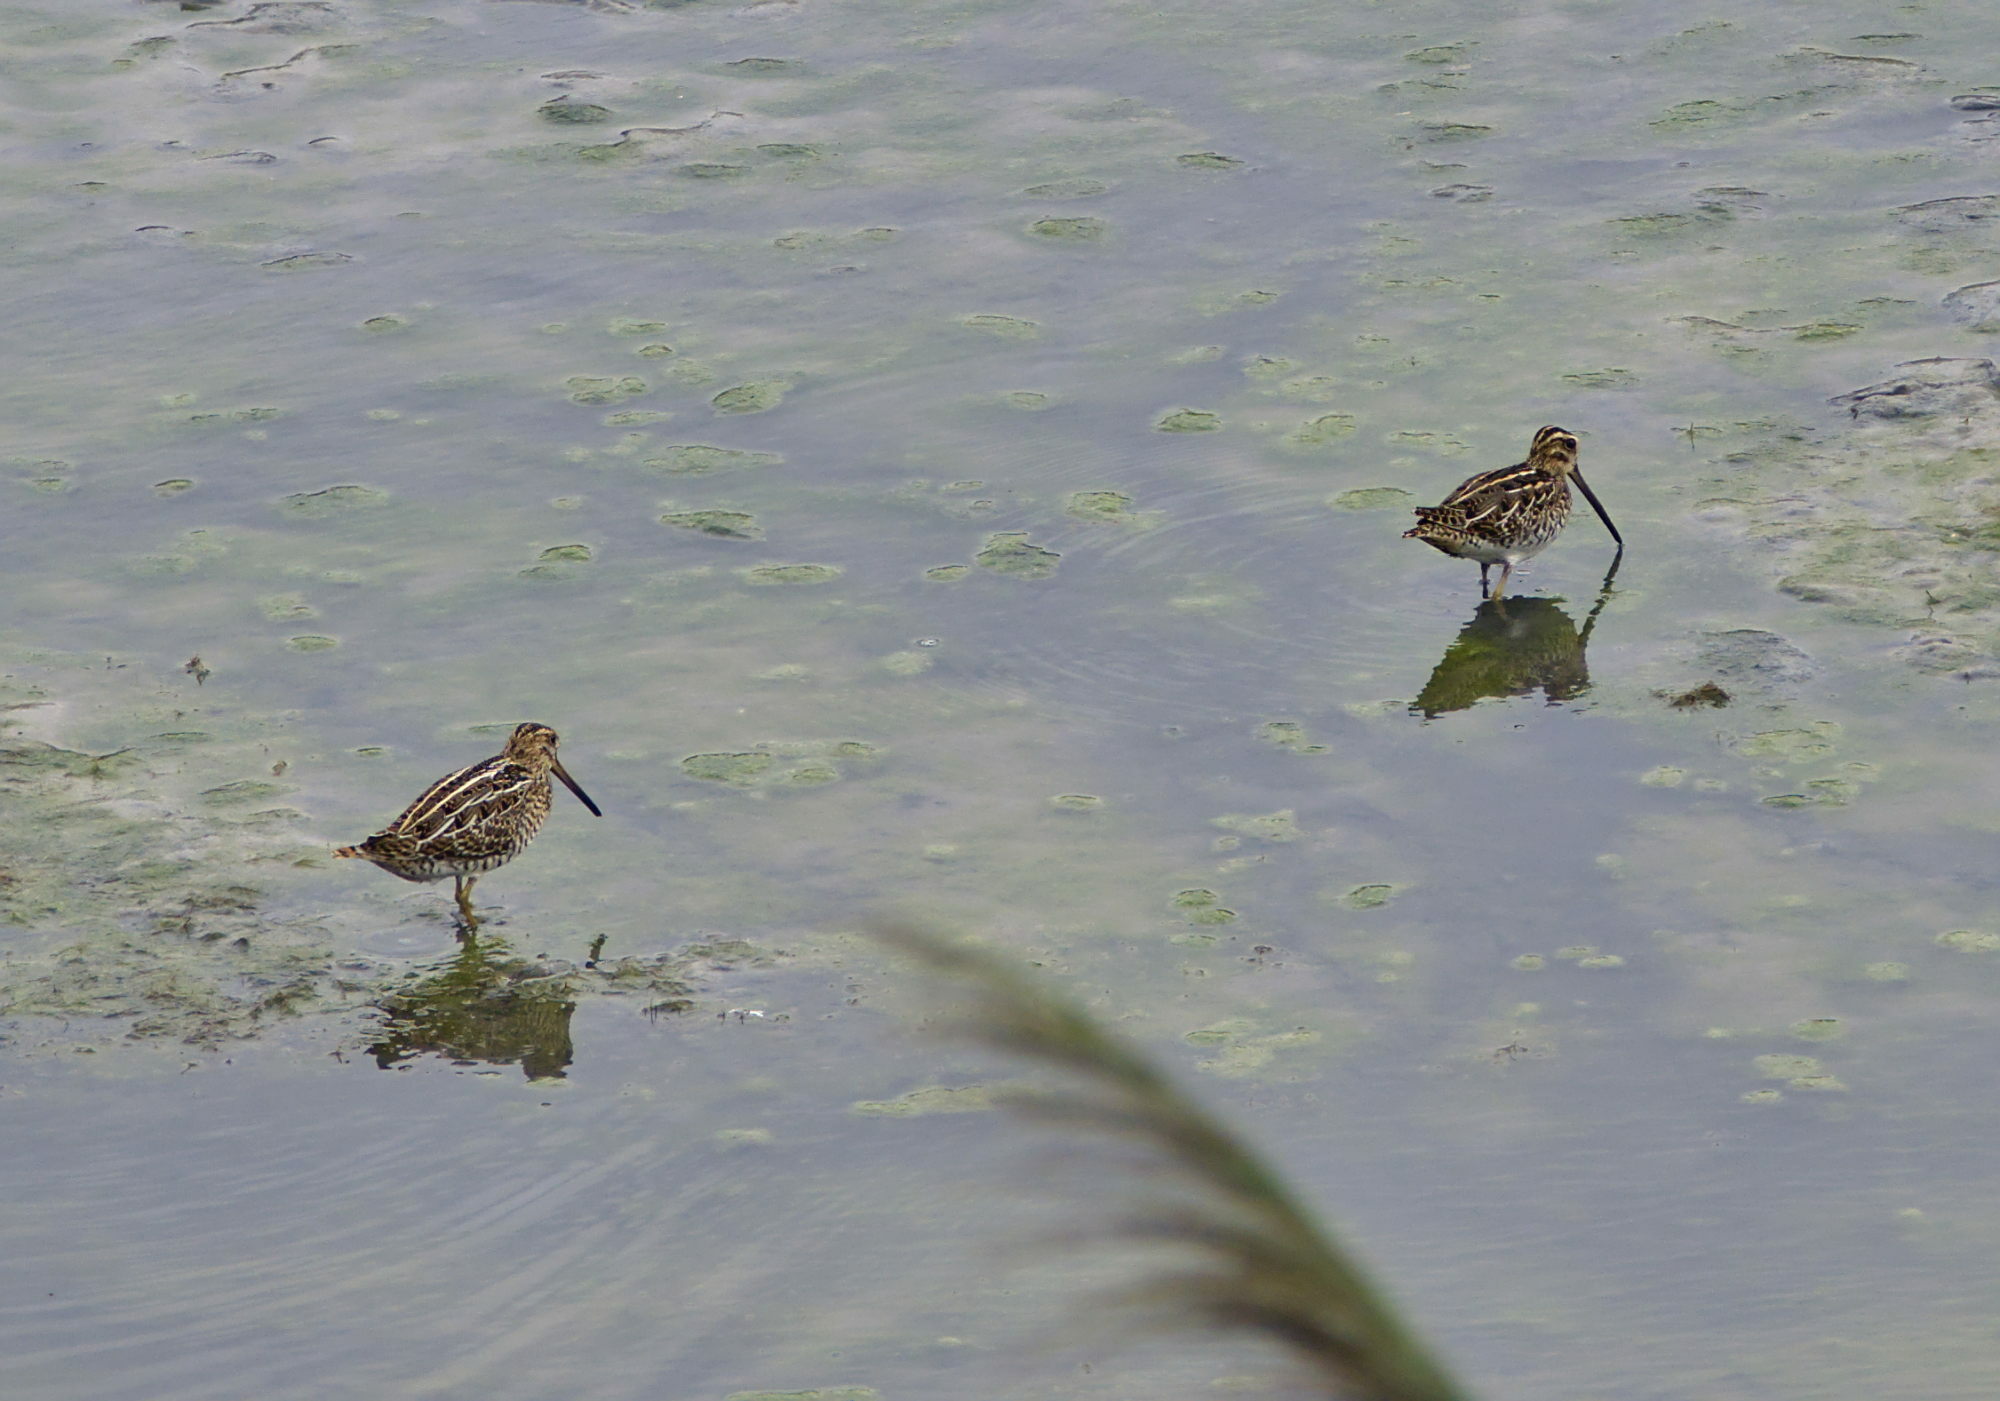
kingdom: Animalia
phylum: Chordata
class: Aves
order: Charadriiformes
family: Scolopacidae
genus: Gallinago
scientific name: Gallinago gallinago
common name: Common snipe
